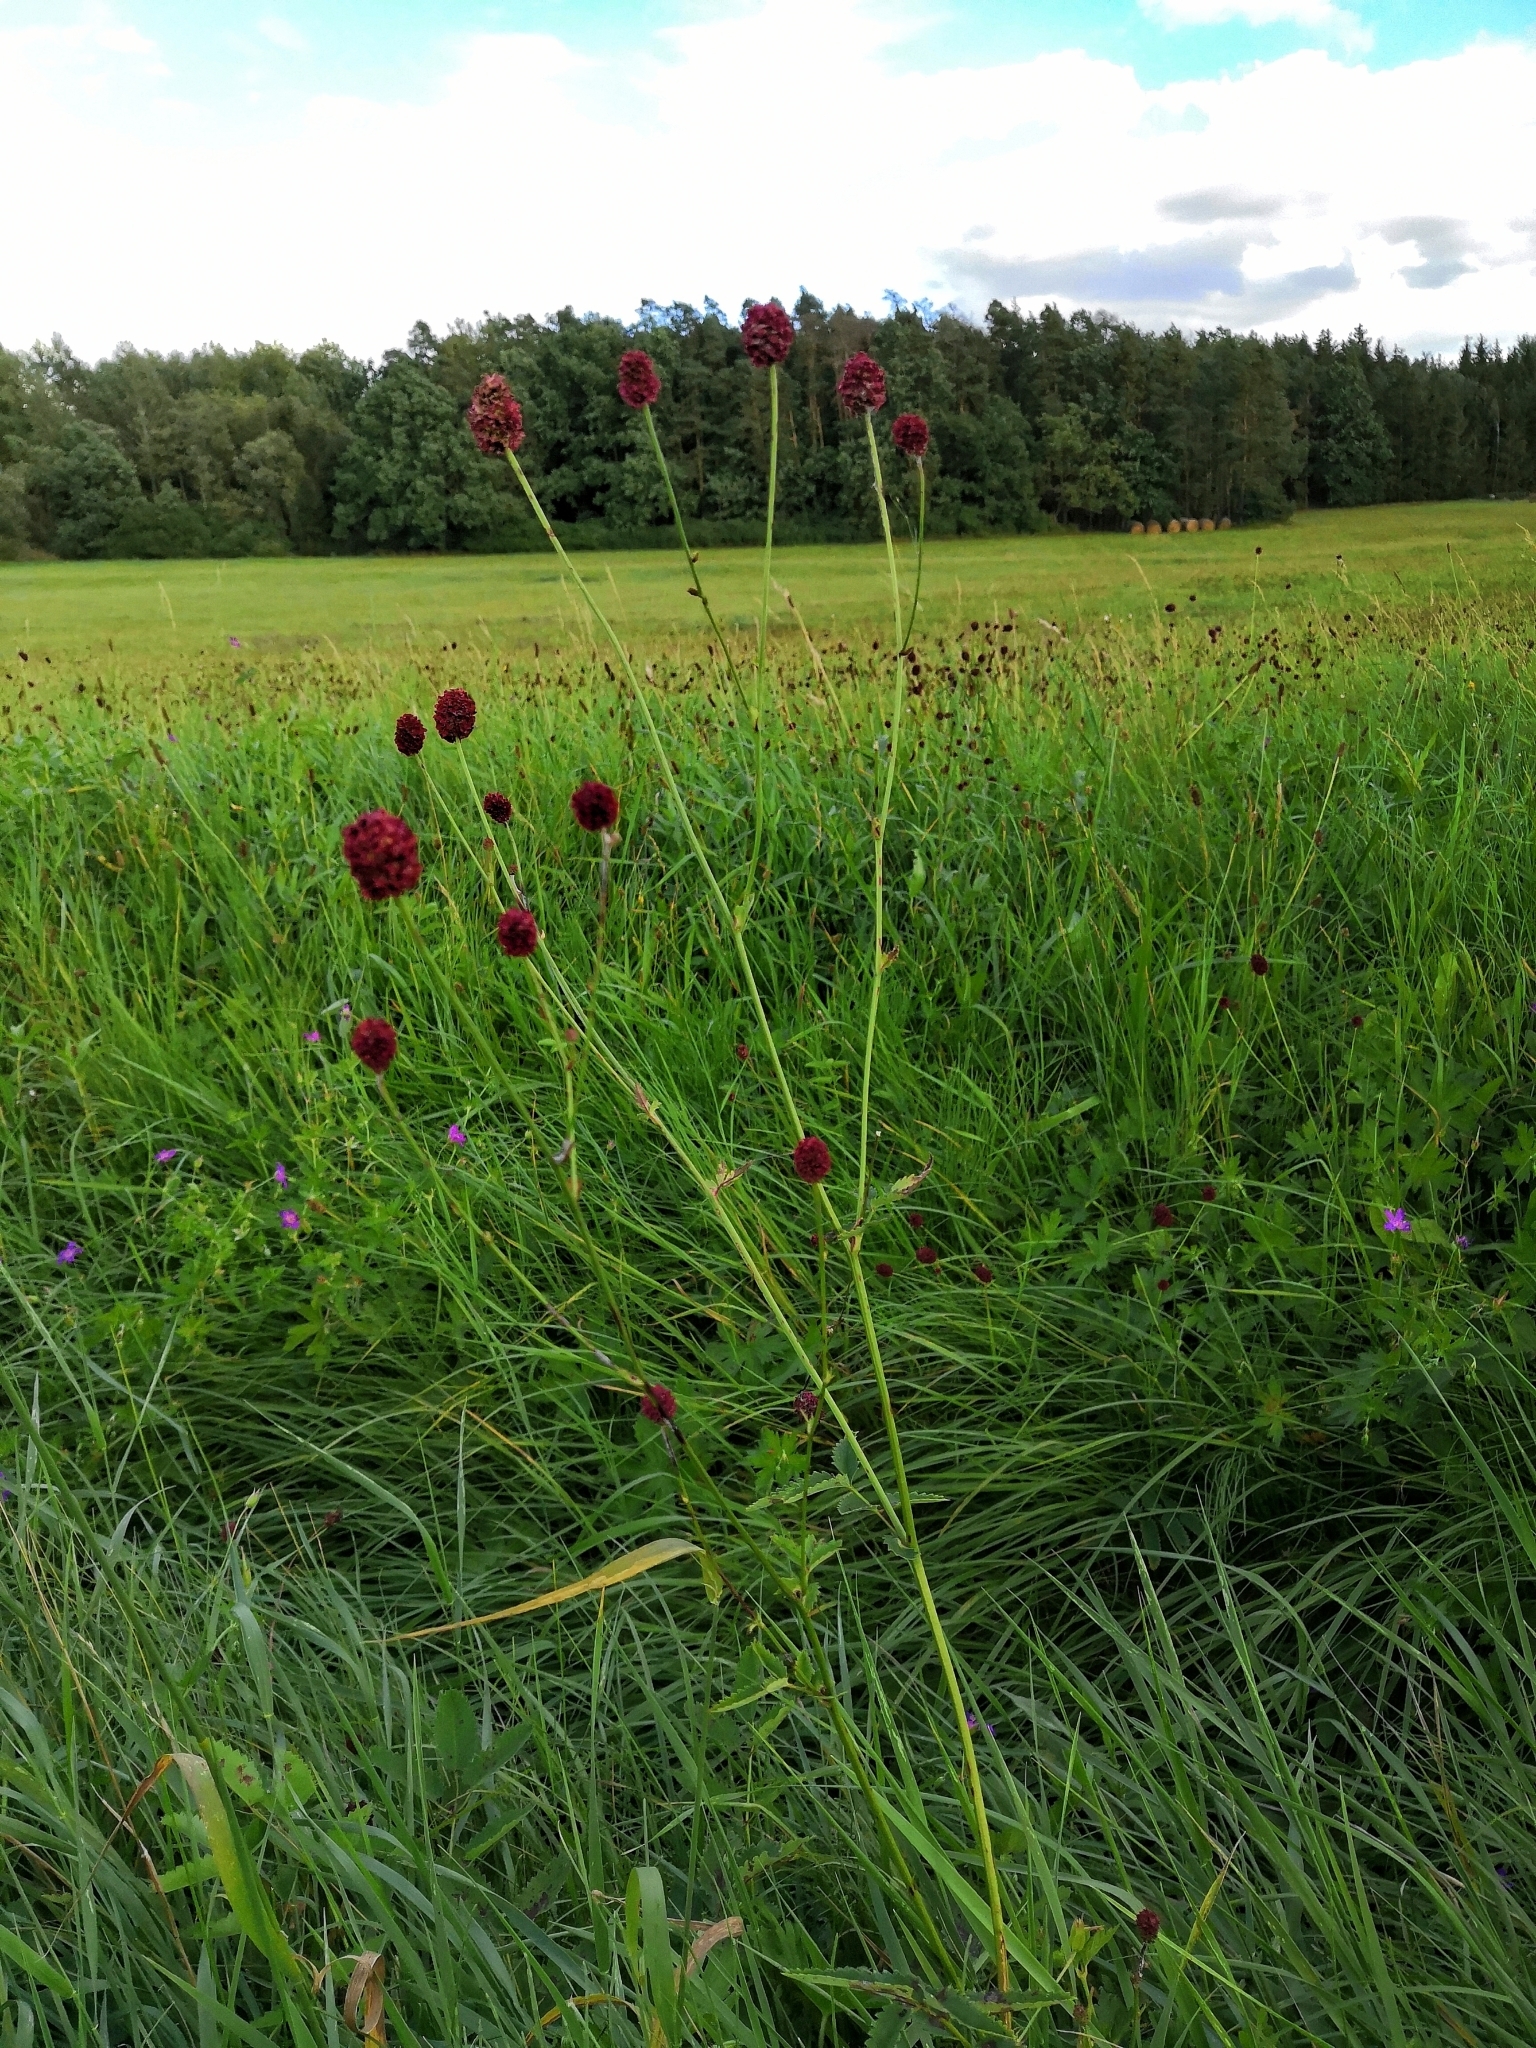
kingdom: Plantae
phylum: Tracheophyta
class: Magnoliopsida
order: Rosales
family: Rosaceae
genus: Sanguisorba
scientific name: Sanguisorba officinalis
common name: Great burnet
